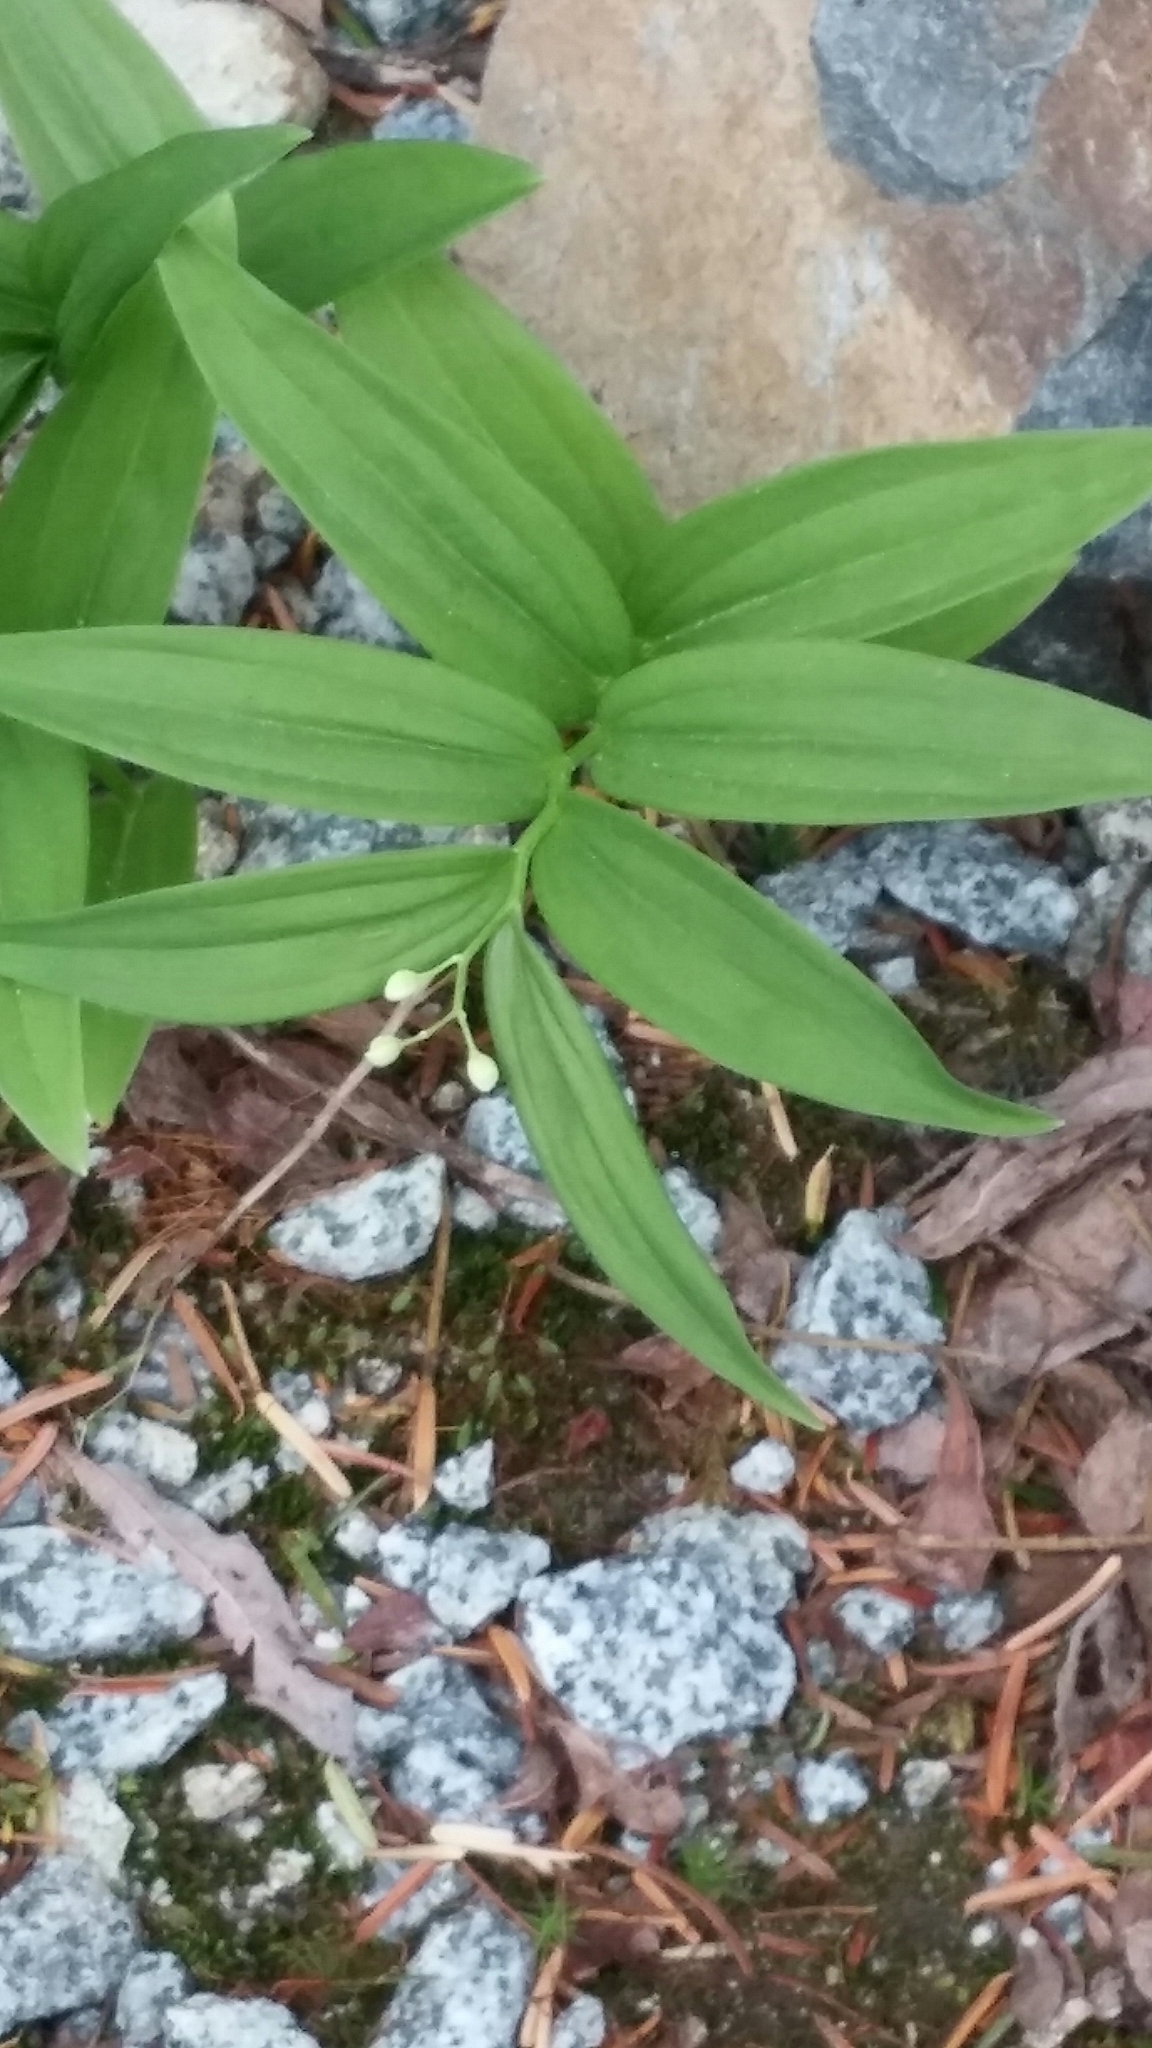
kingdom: Plantae
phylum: Tracheophyta
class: Liliopsida
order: Asparagales
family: Asparagaceae
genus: Maianthemum
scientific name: Maianthemum stellatum
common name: Little false solomon's seal
